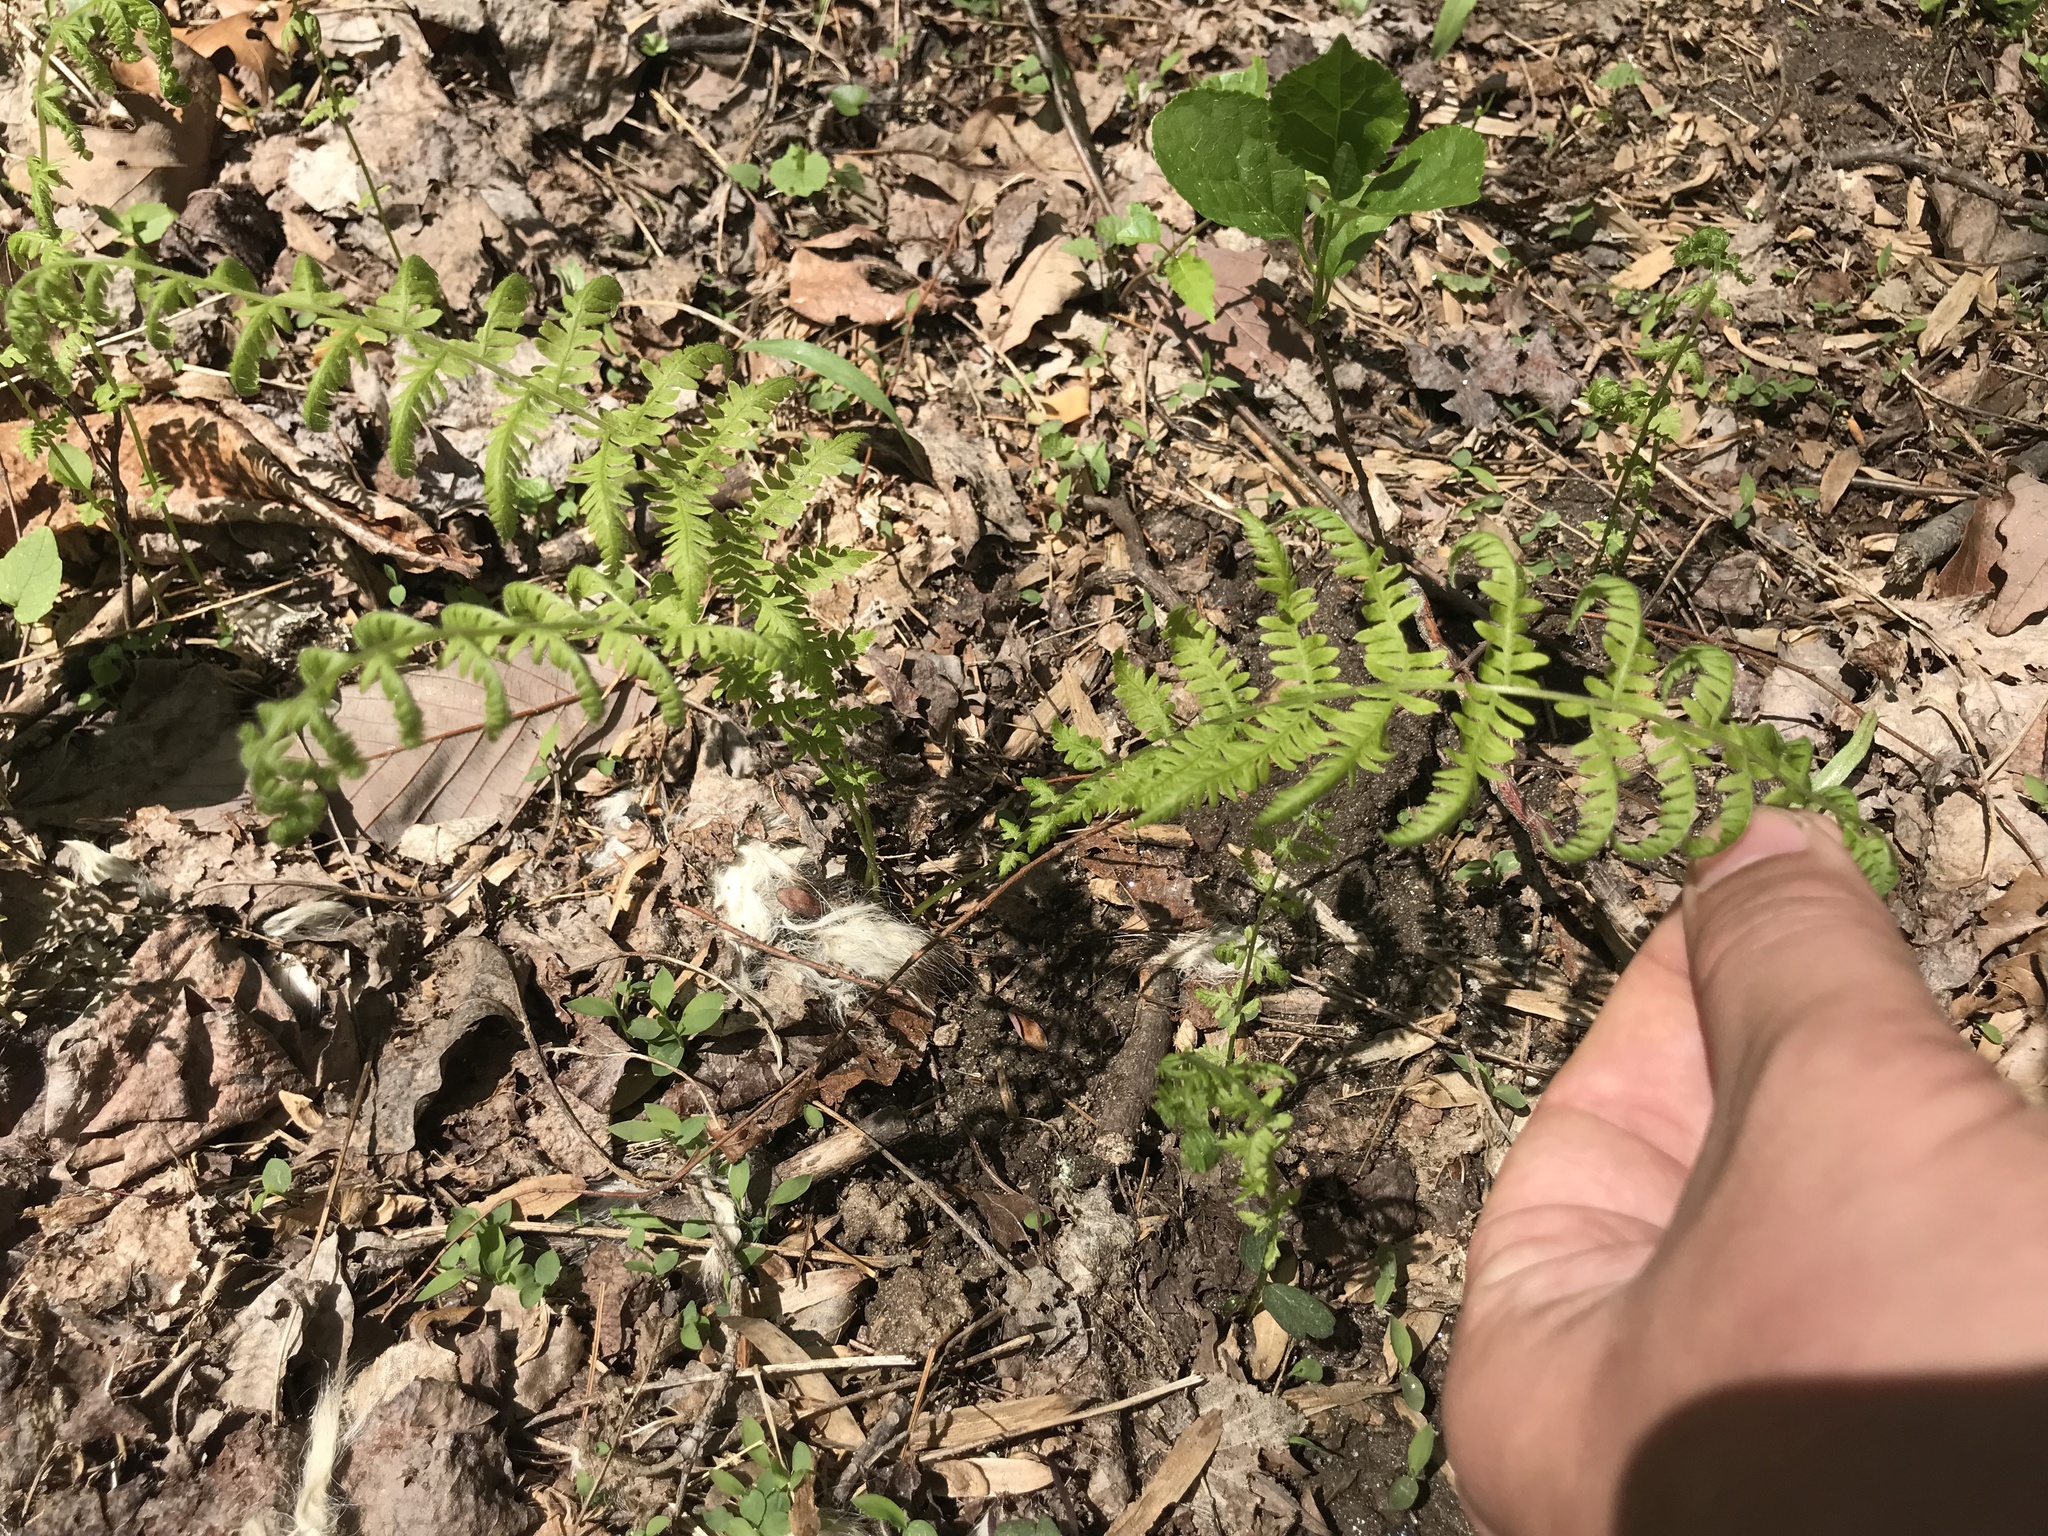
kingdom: Plantae
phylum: Tracheophyta
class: Polypodiopsida
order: Polypodiales
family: Thelypteridaceae
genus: Amauropelta
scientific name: Amauropelta noveboracensis
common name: New york fern
